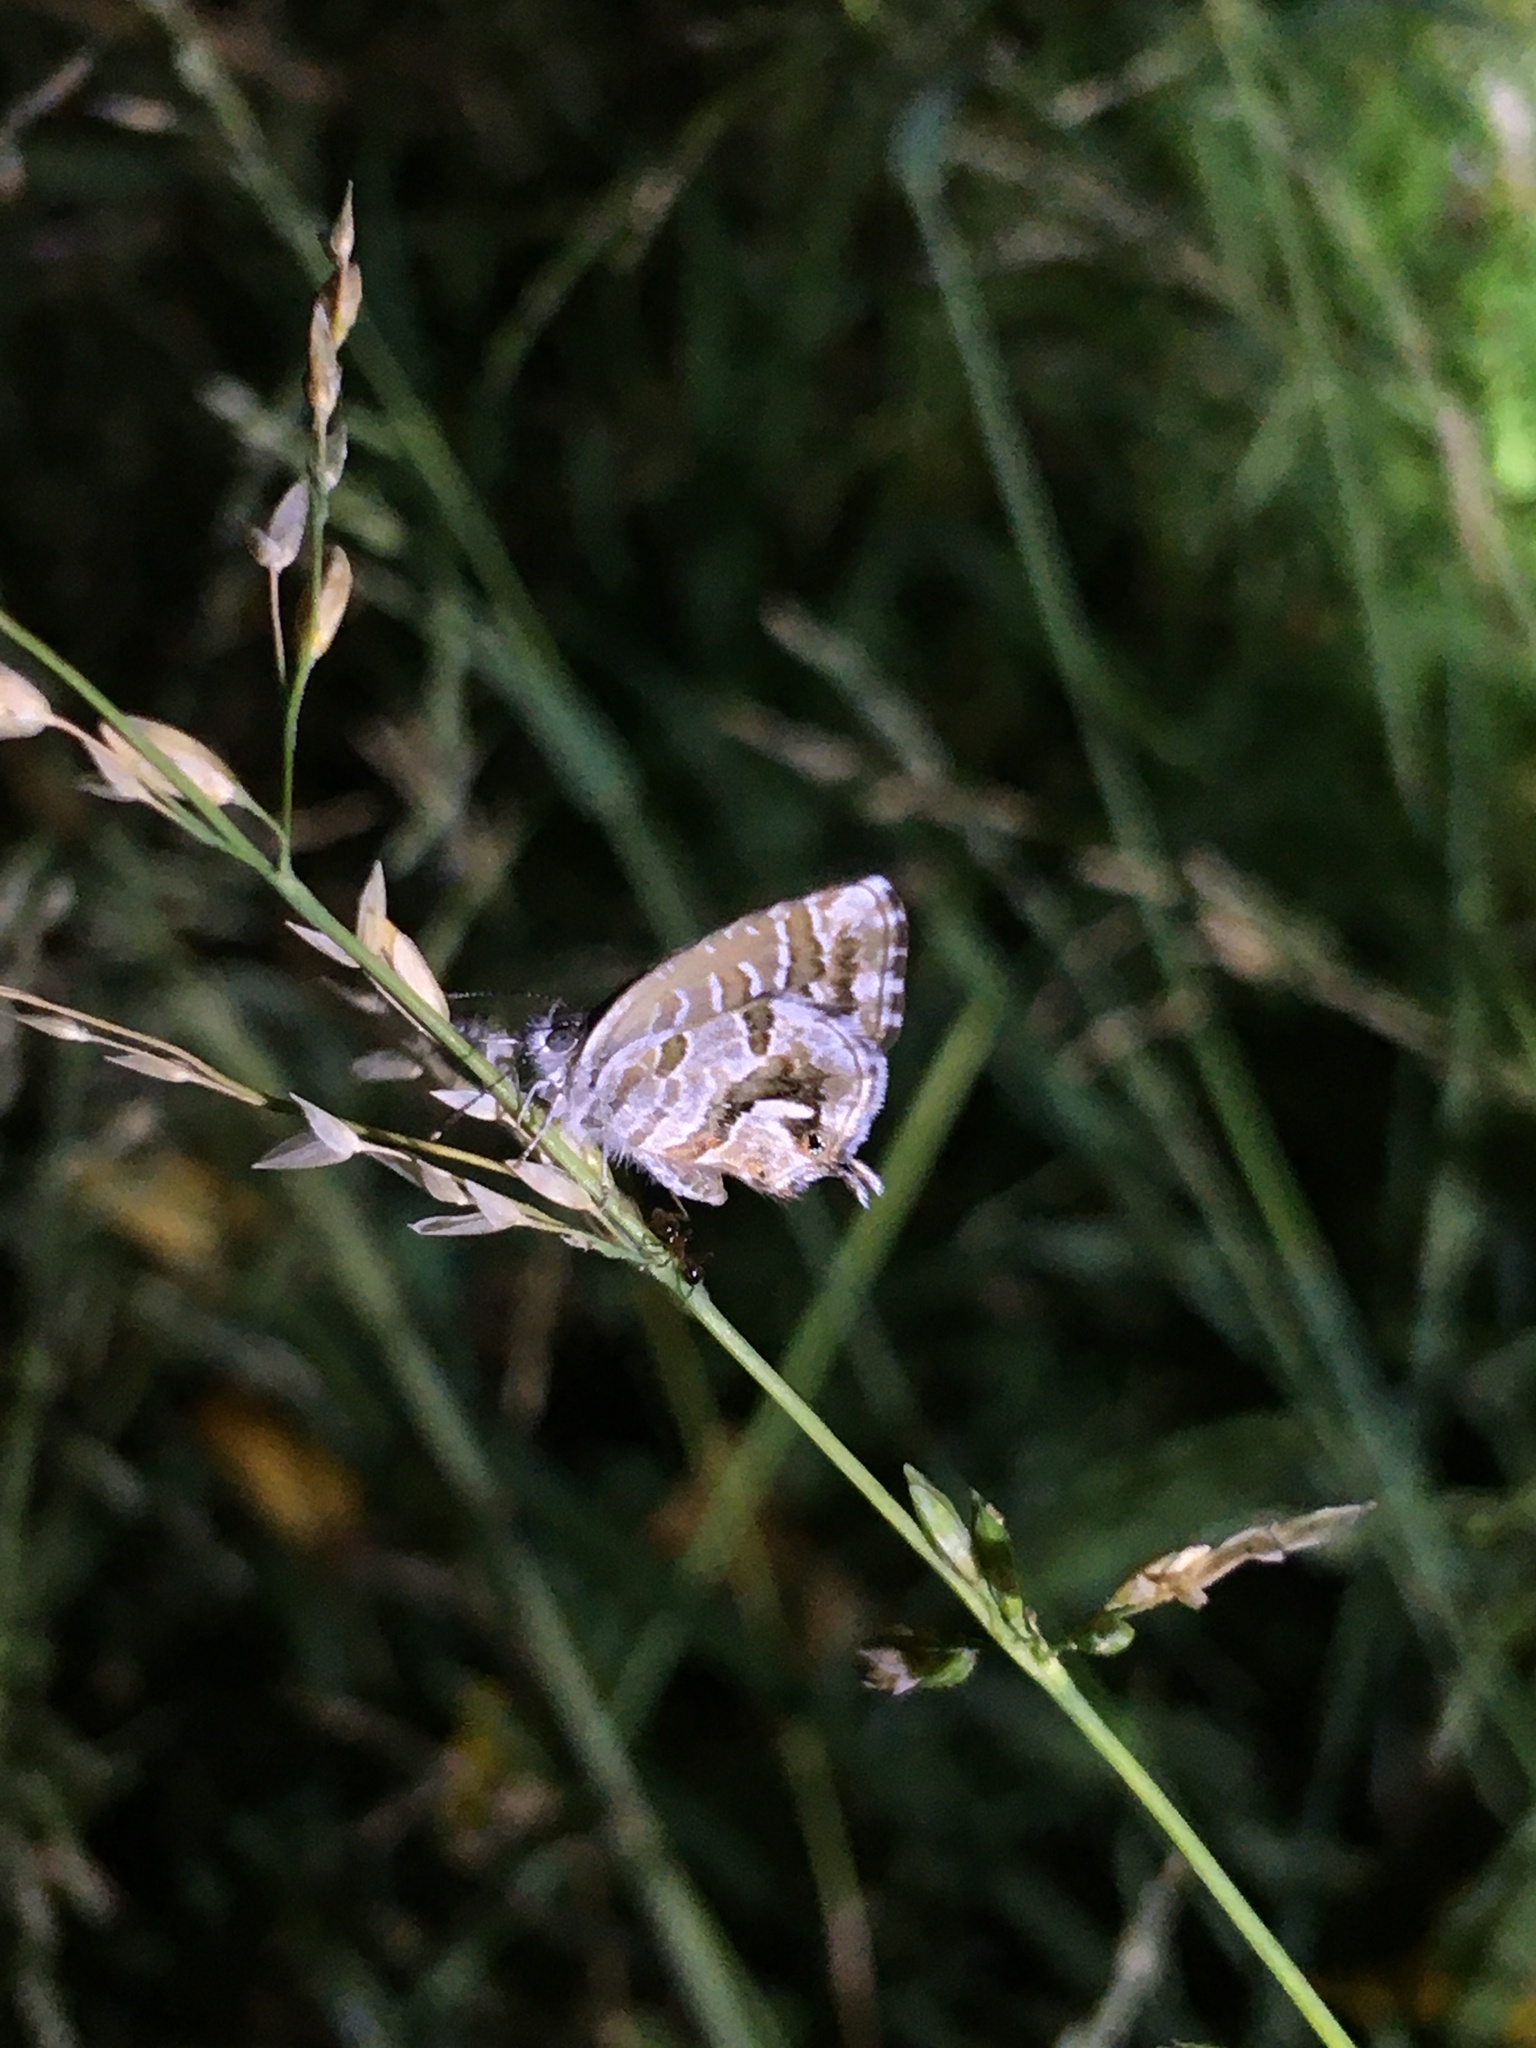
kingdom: Animalia
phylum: Arthropoda
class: Insecta
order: Lepidoptera
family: Lycaenidae
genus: Cacyreus
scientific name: Cacyreus fracta
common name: Water bronze
